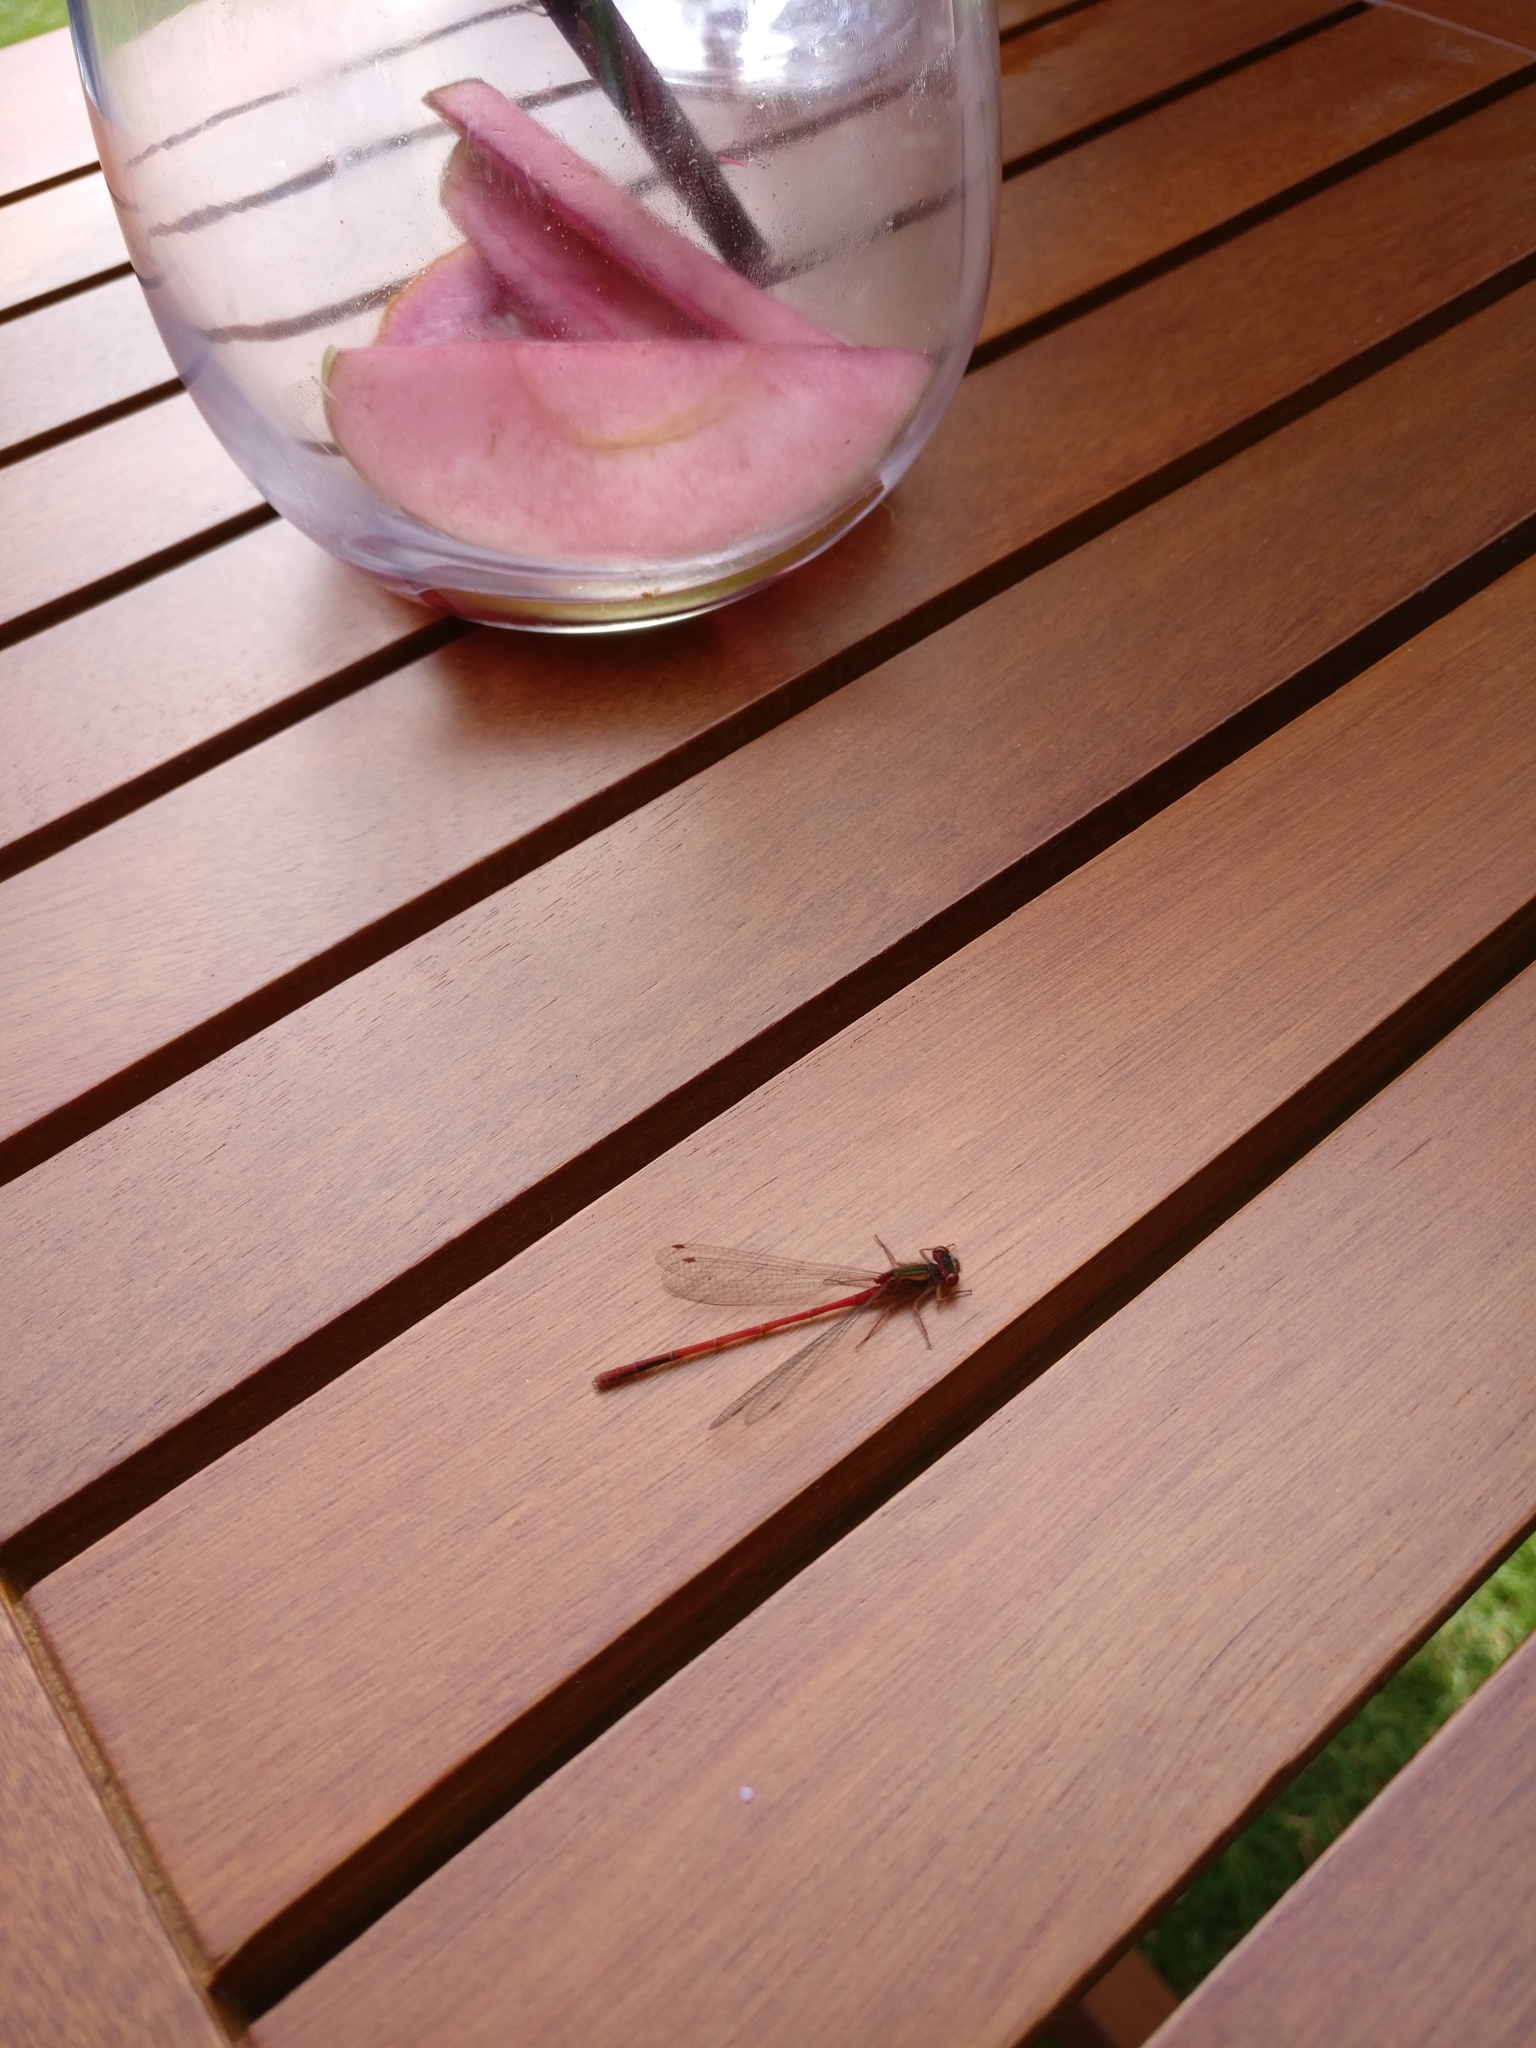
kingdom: Animalia
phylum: Arthropoda
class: Insecta
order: Odonata
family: Coenagrionidae
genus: Xanthocnemis
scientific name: Xanthocnemis zealandica
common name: Common redcoat damselfly
